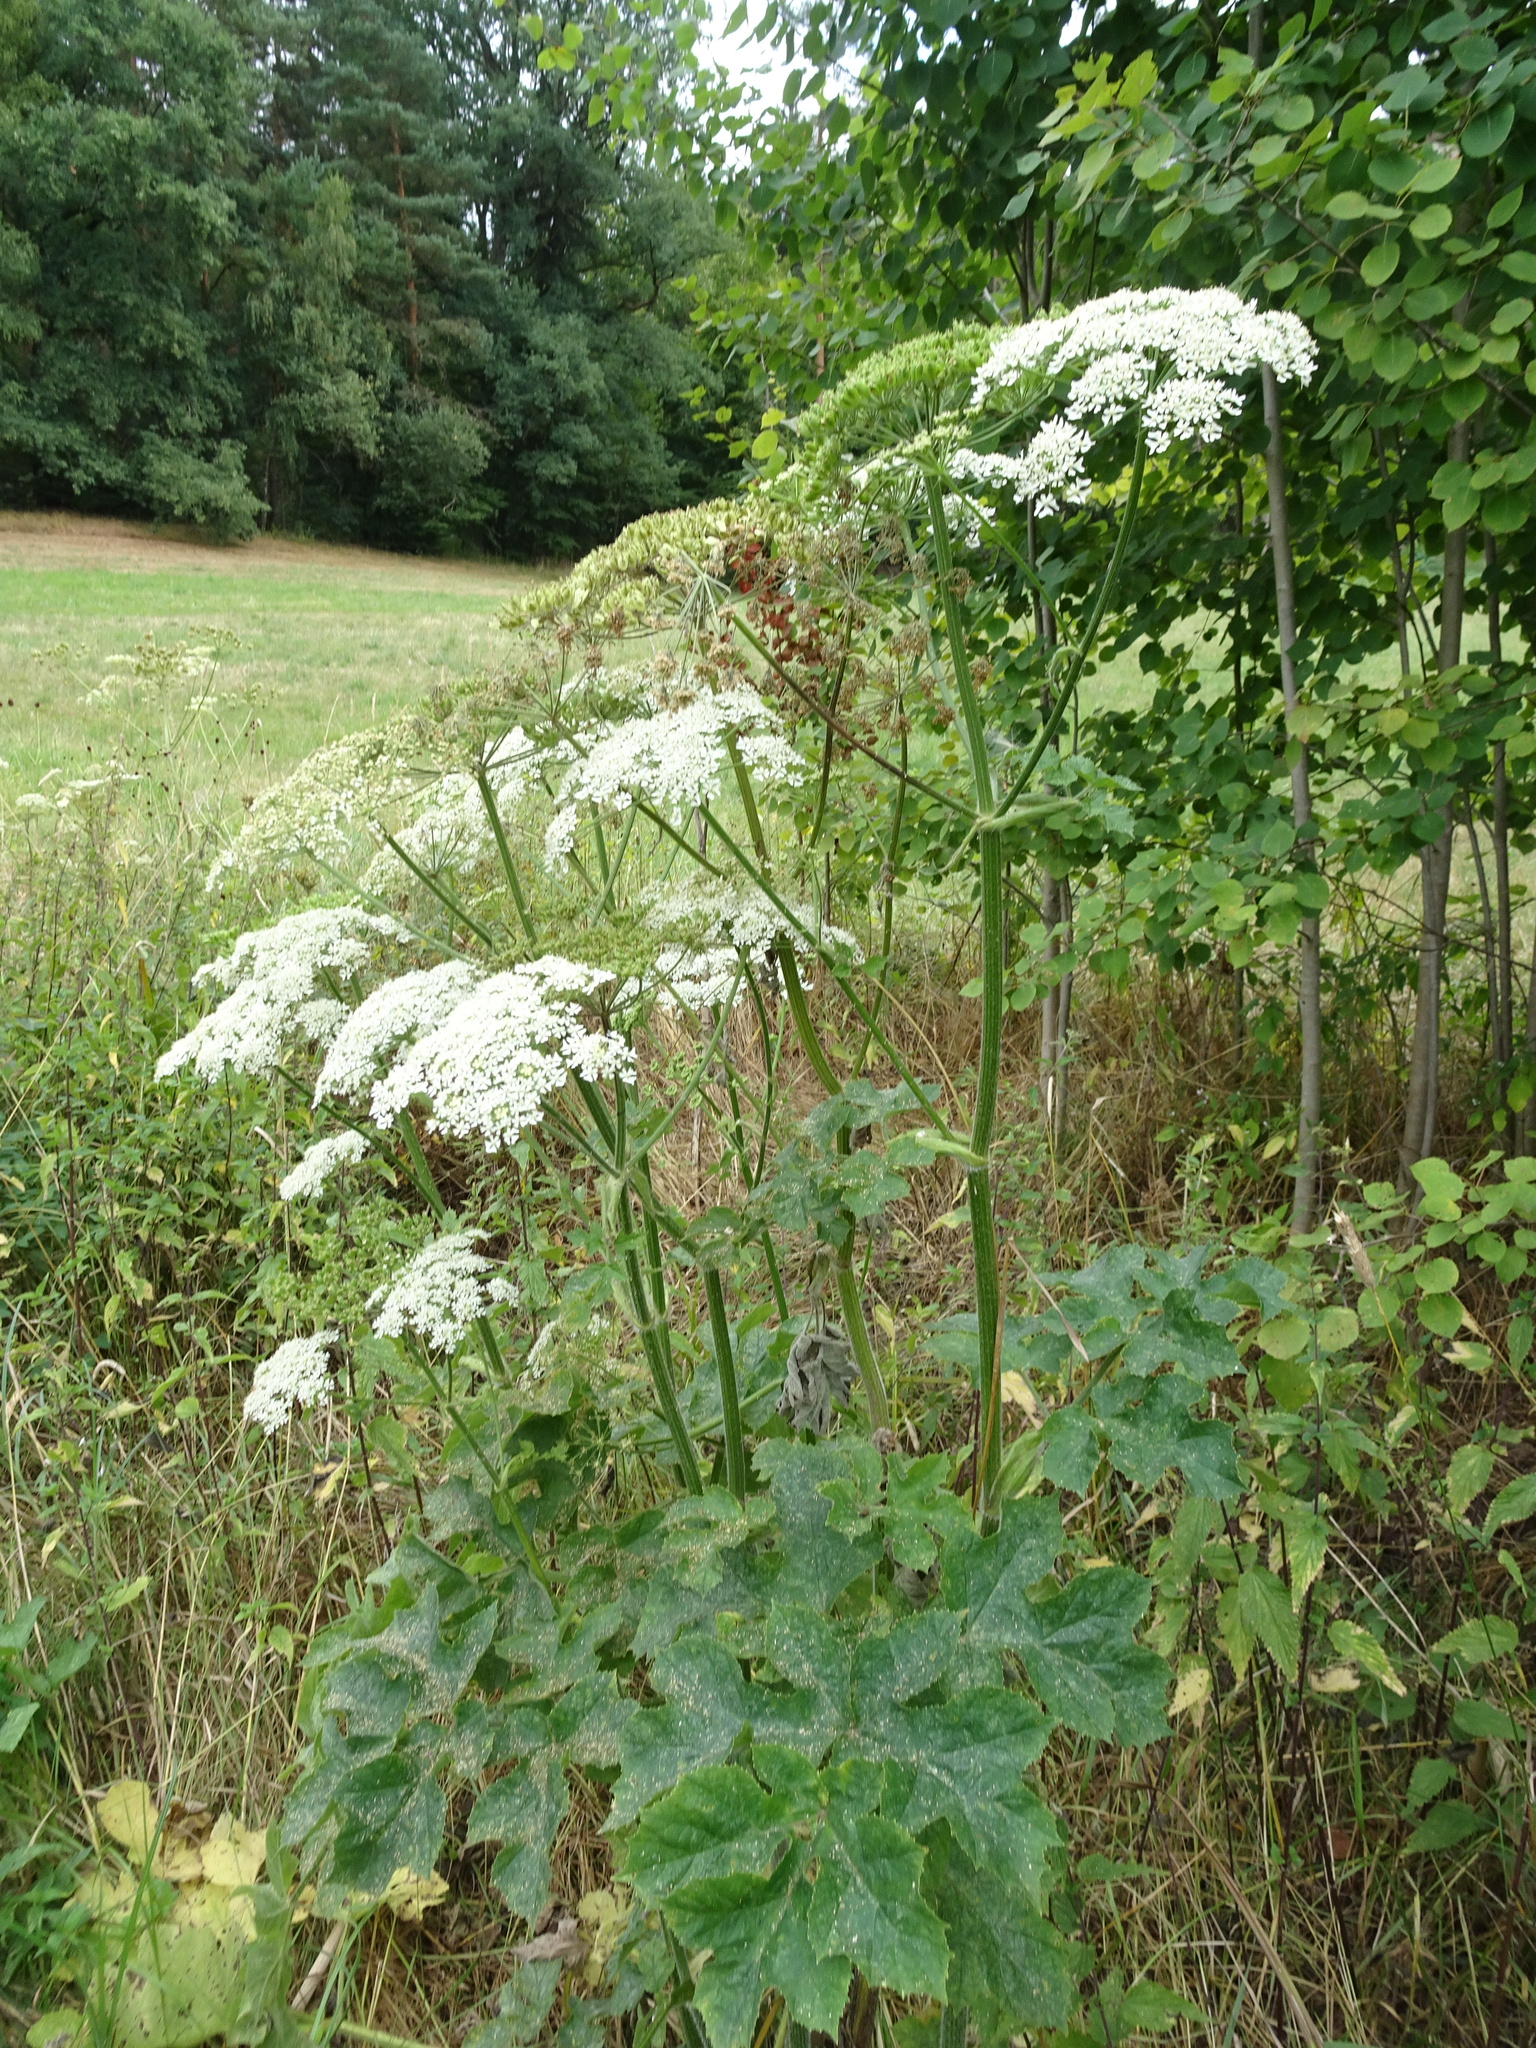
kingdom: Plantae
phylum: Tracheophyta
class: Magnoliopsida
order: Apiales
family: Apiaceae
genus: Heracleum
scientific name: Heracleum sphondylium
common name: Hogweed
